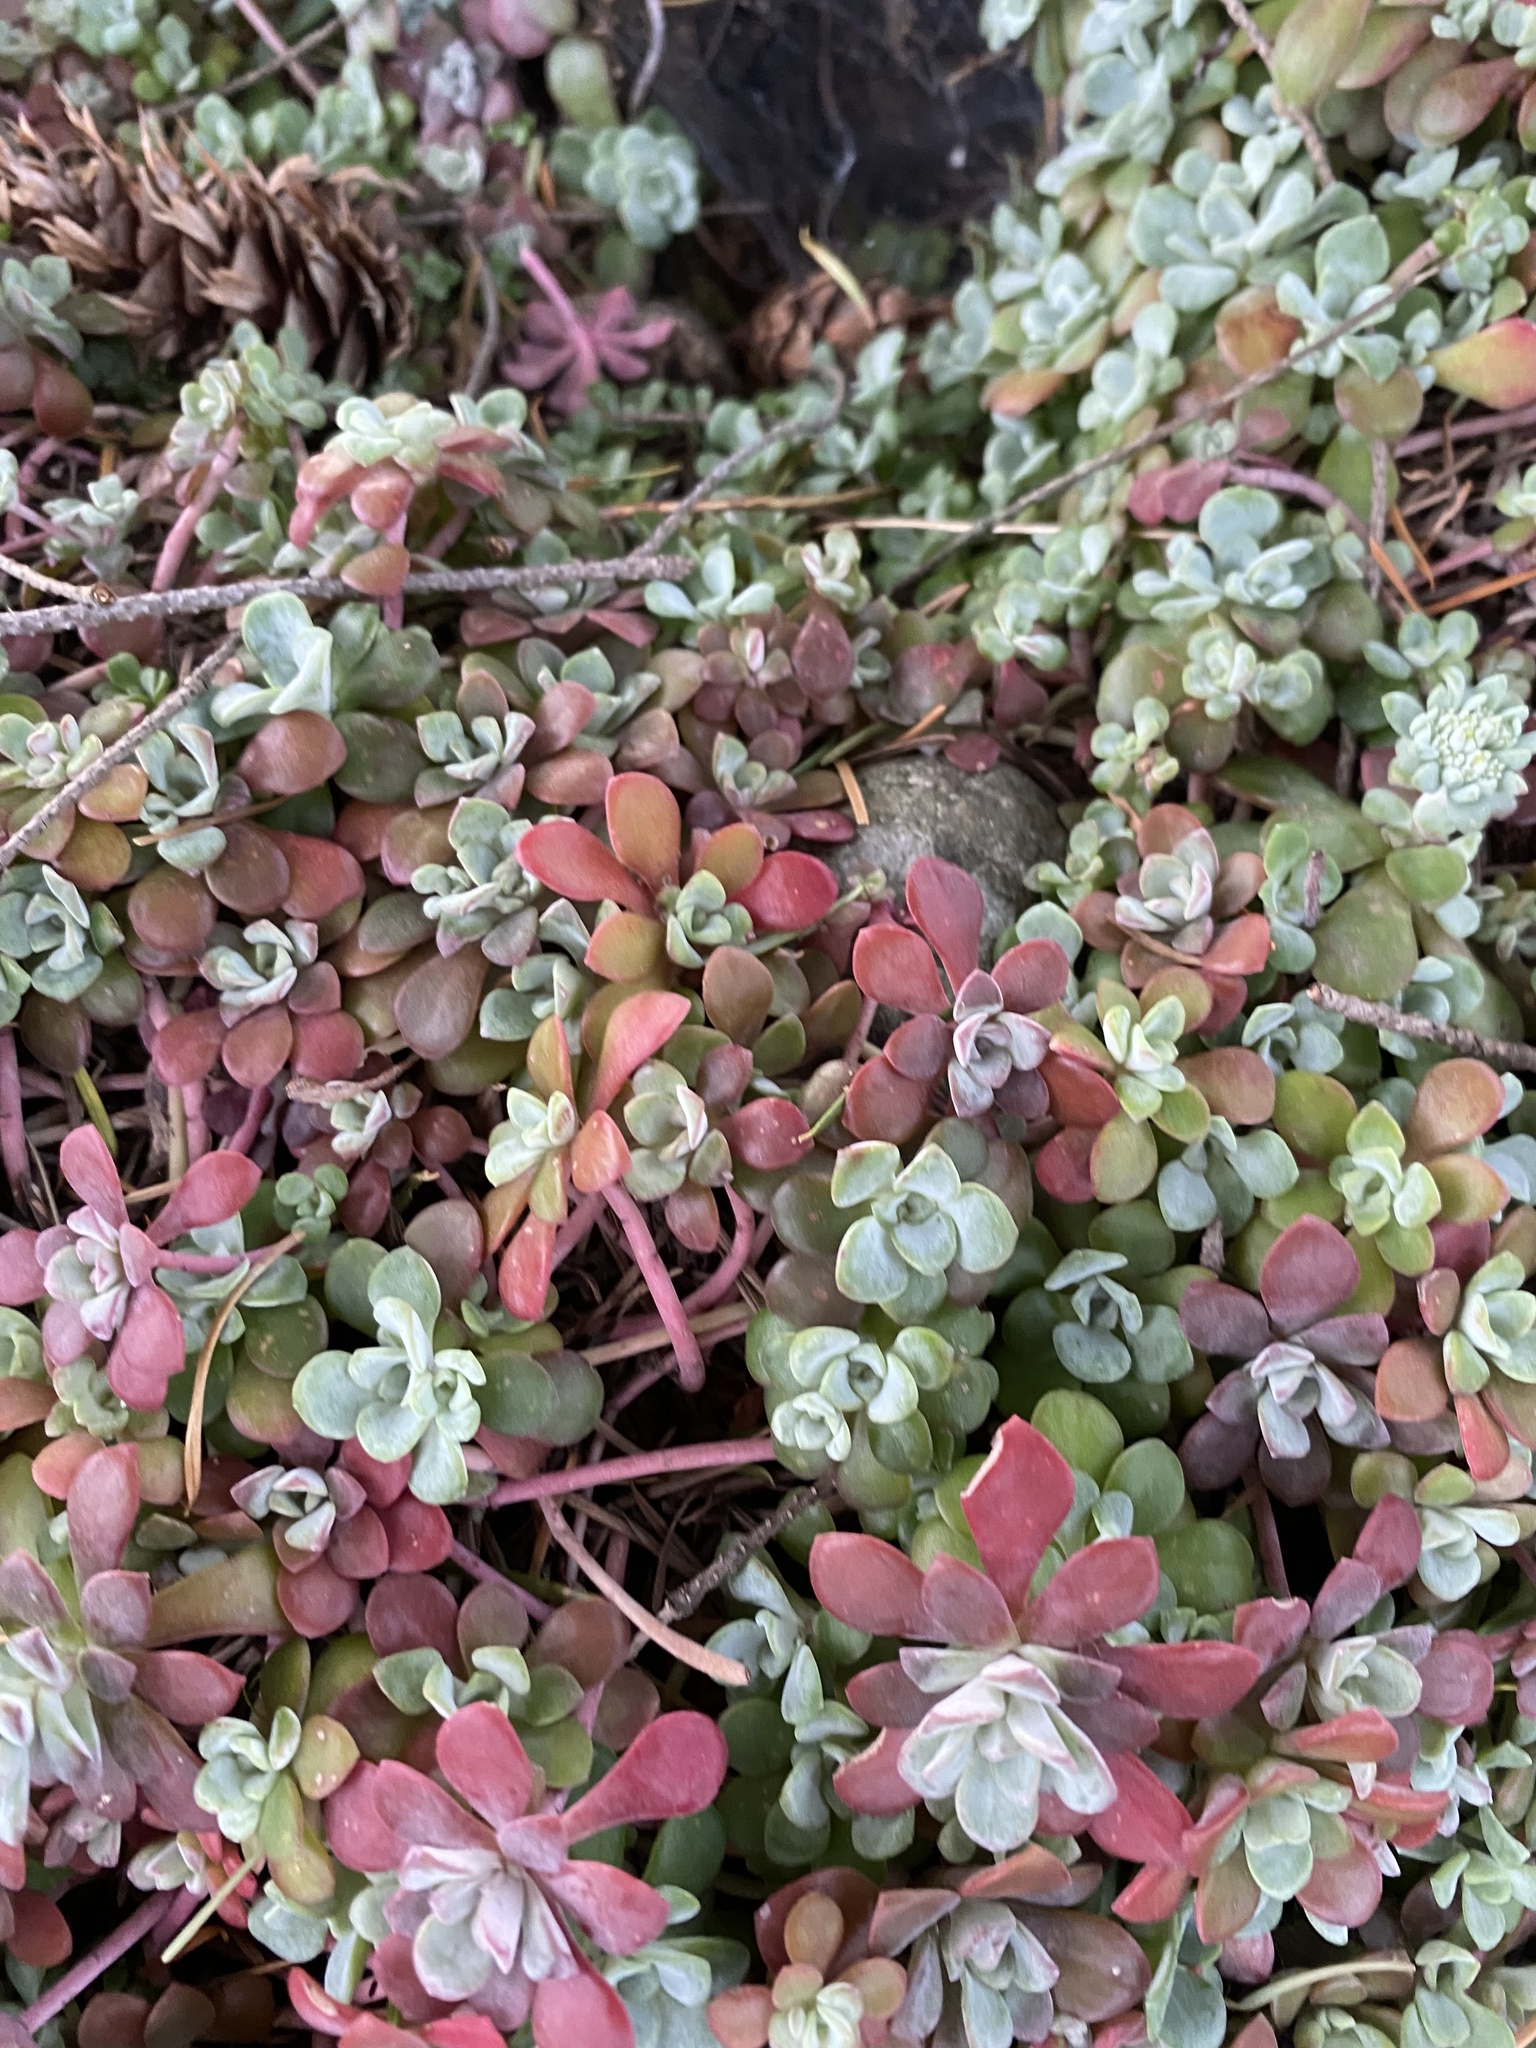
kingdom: Plantae
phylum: Tracheophyta
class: Magnoliopsida
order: Saxifragales
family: Crassulaceae
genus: Sedum
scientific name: Sedum spathulifolium
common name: Colorado stonecrop
